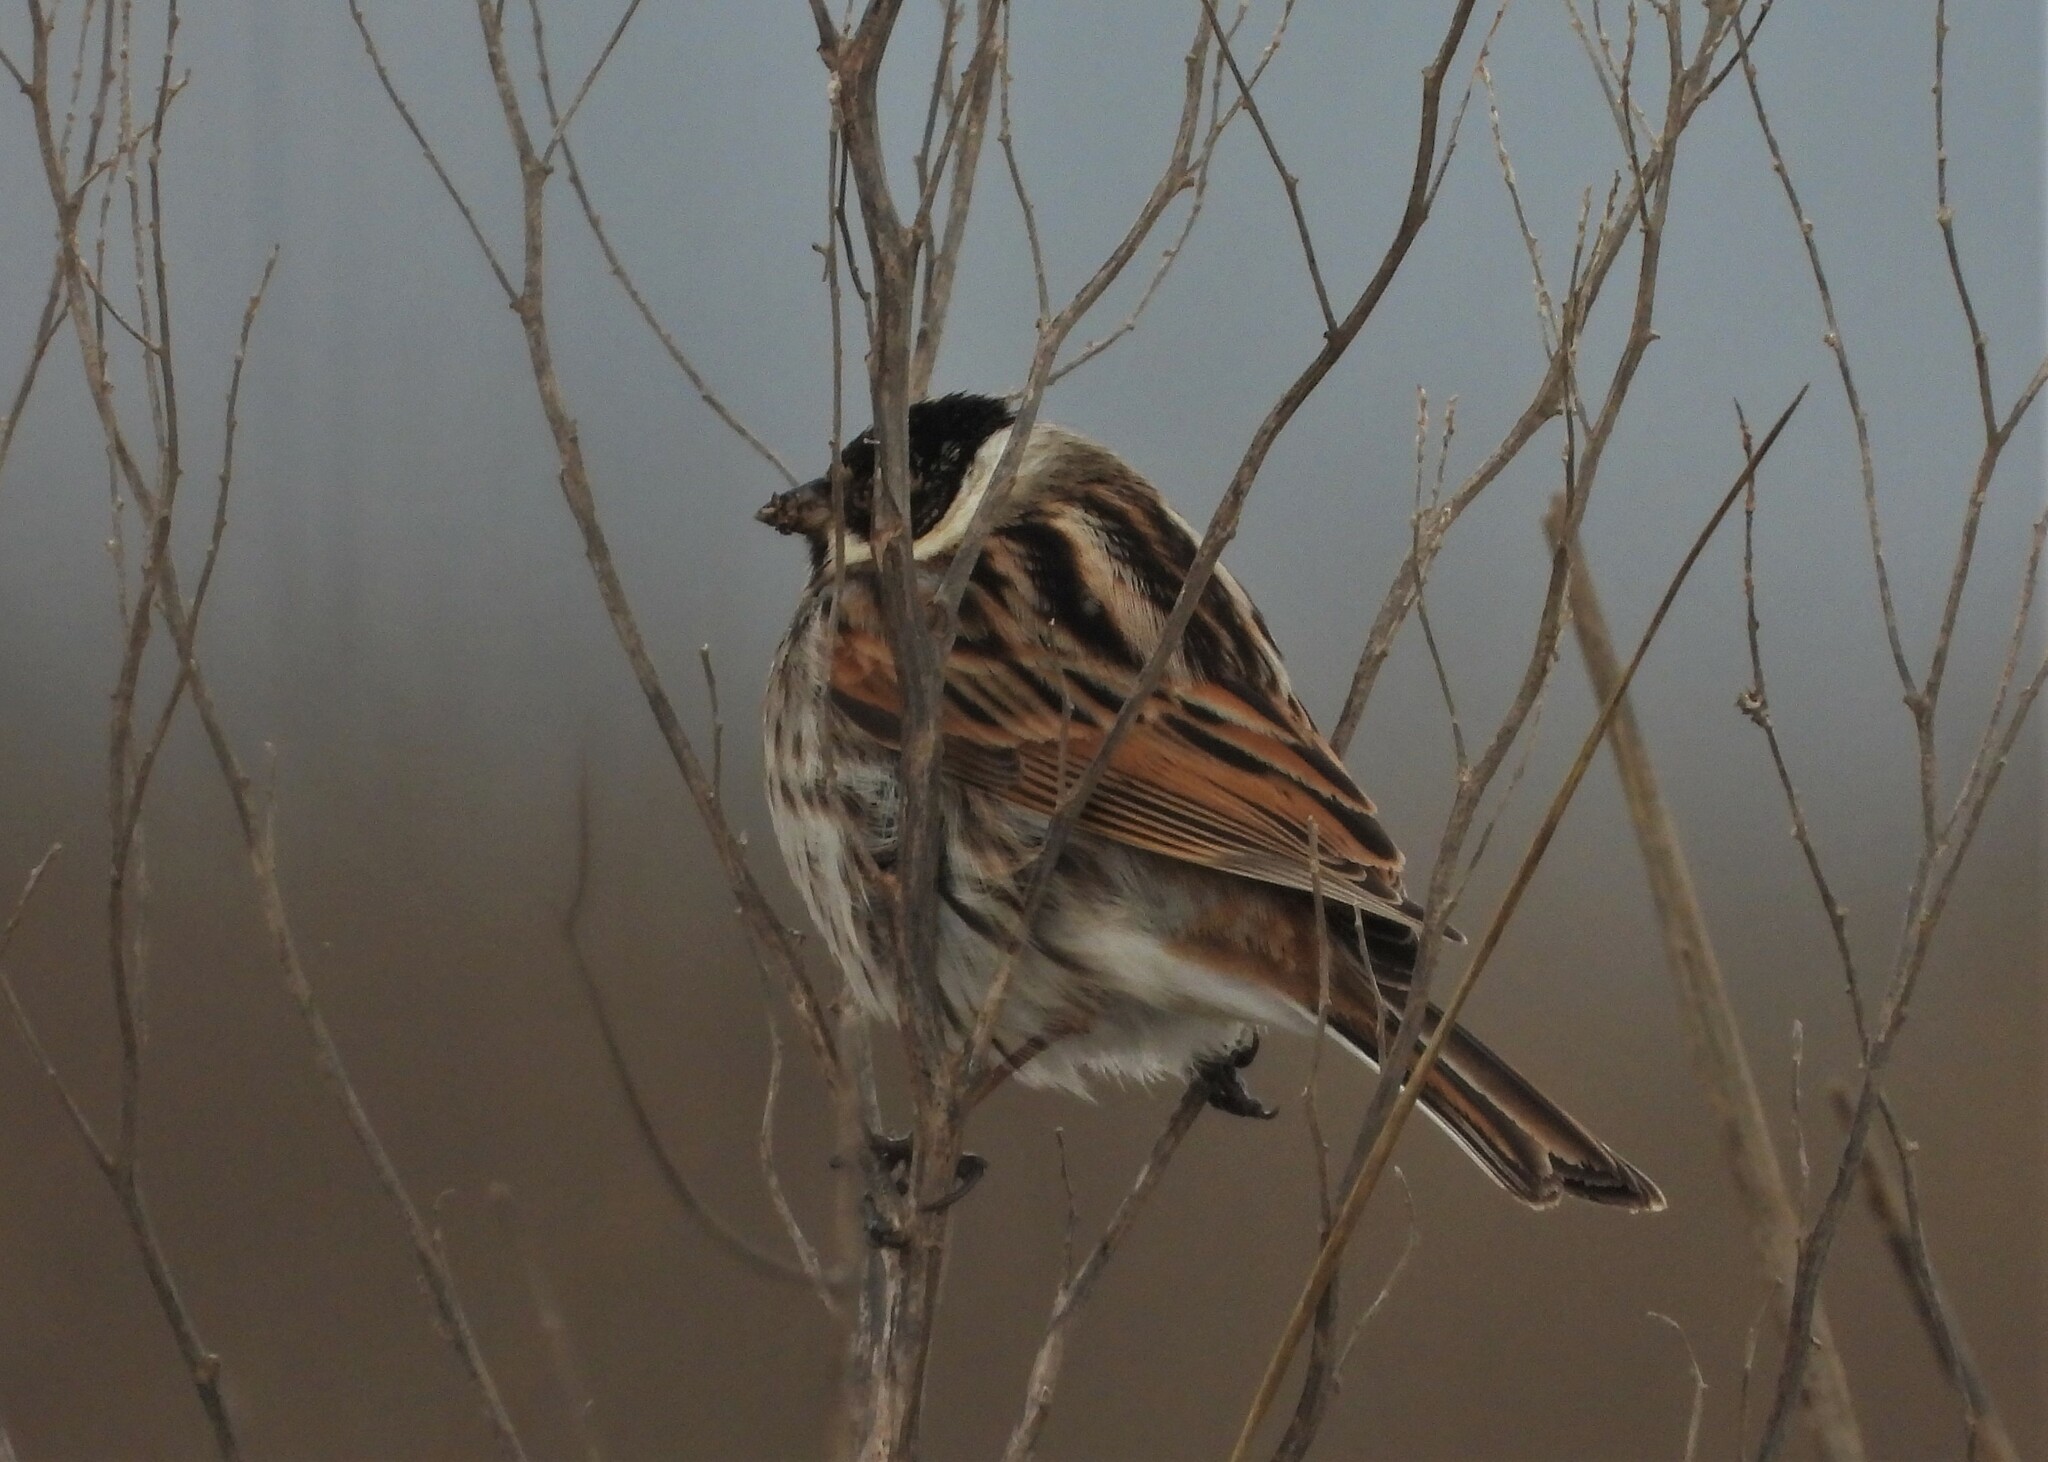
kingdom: Animalia
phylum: Chordata
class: Aves
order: Passeriformes
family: Emberizidae
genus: Emberiza
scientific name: Emberiza schoeniclus
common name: Reed bunting
